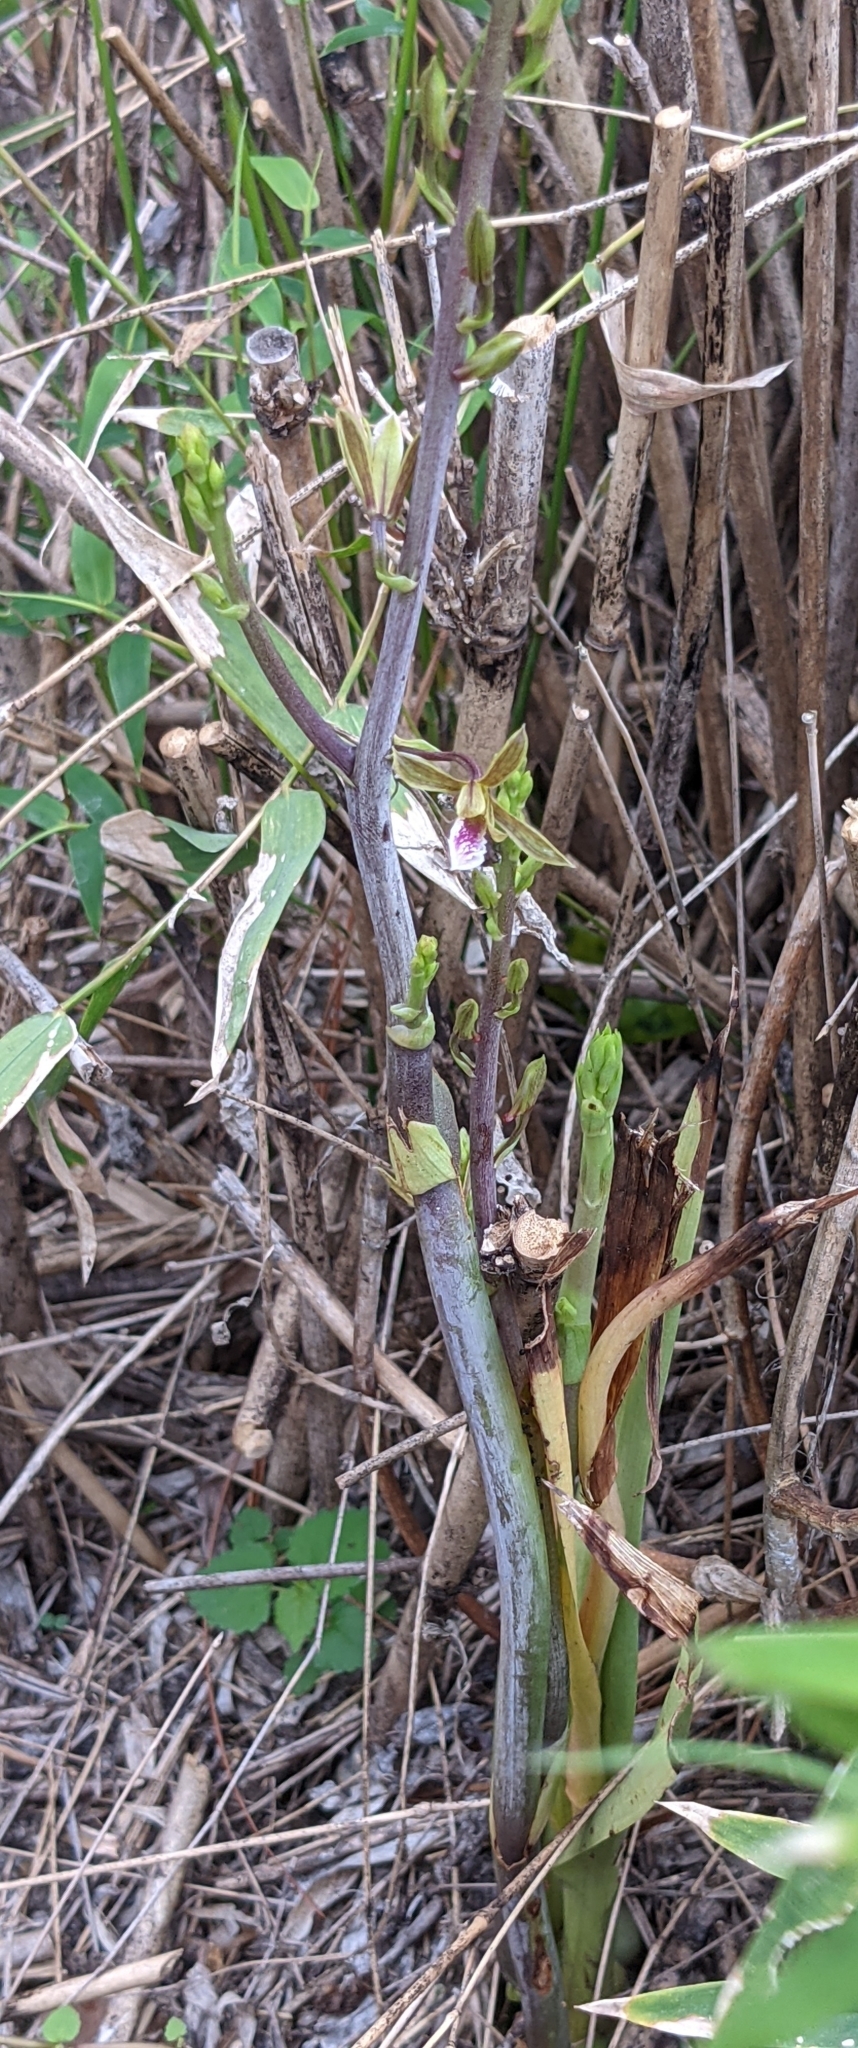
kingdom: Plantae
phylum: Tracheophyta
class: Liliopsida
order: Asparagales
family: Orchidaceae
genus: Eulophia
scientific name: Eulophia graminea
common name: Orchid
